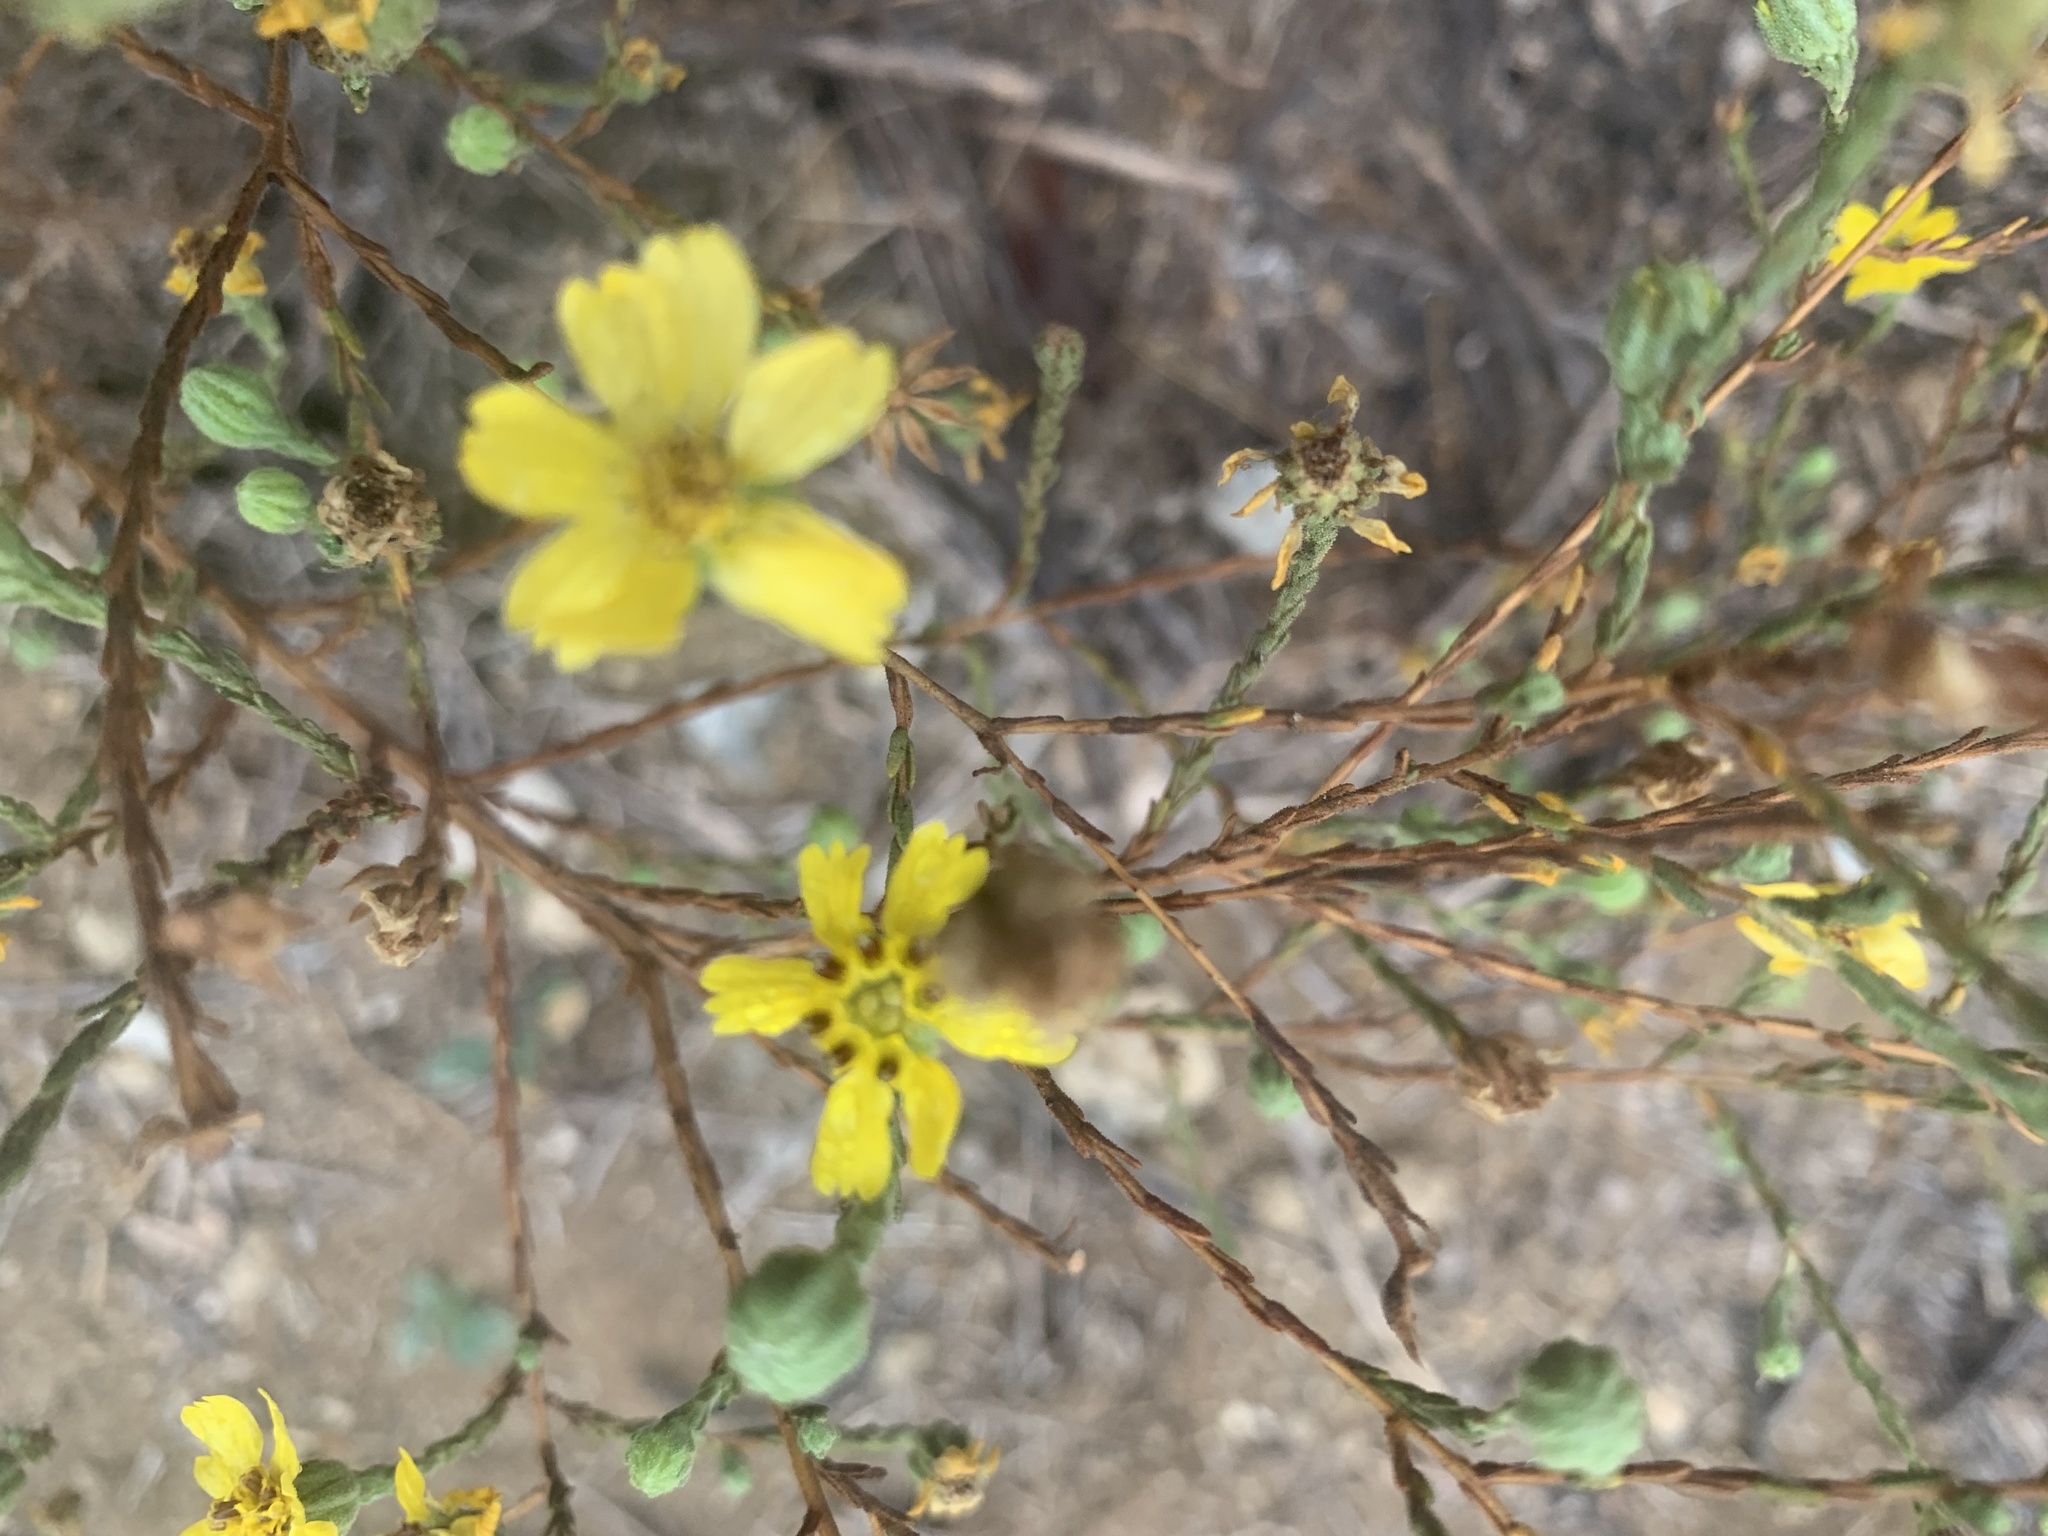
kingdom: Plantae
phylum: Tracheophyta
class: Magnoliopsida
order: Asterales
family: Asteraceae
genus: Deinandra
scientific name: Deinandra paniculata
